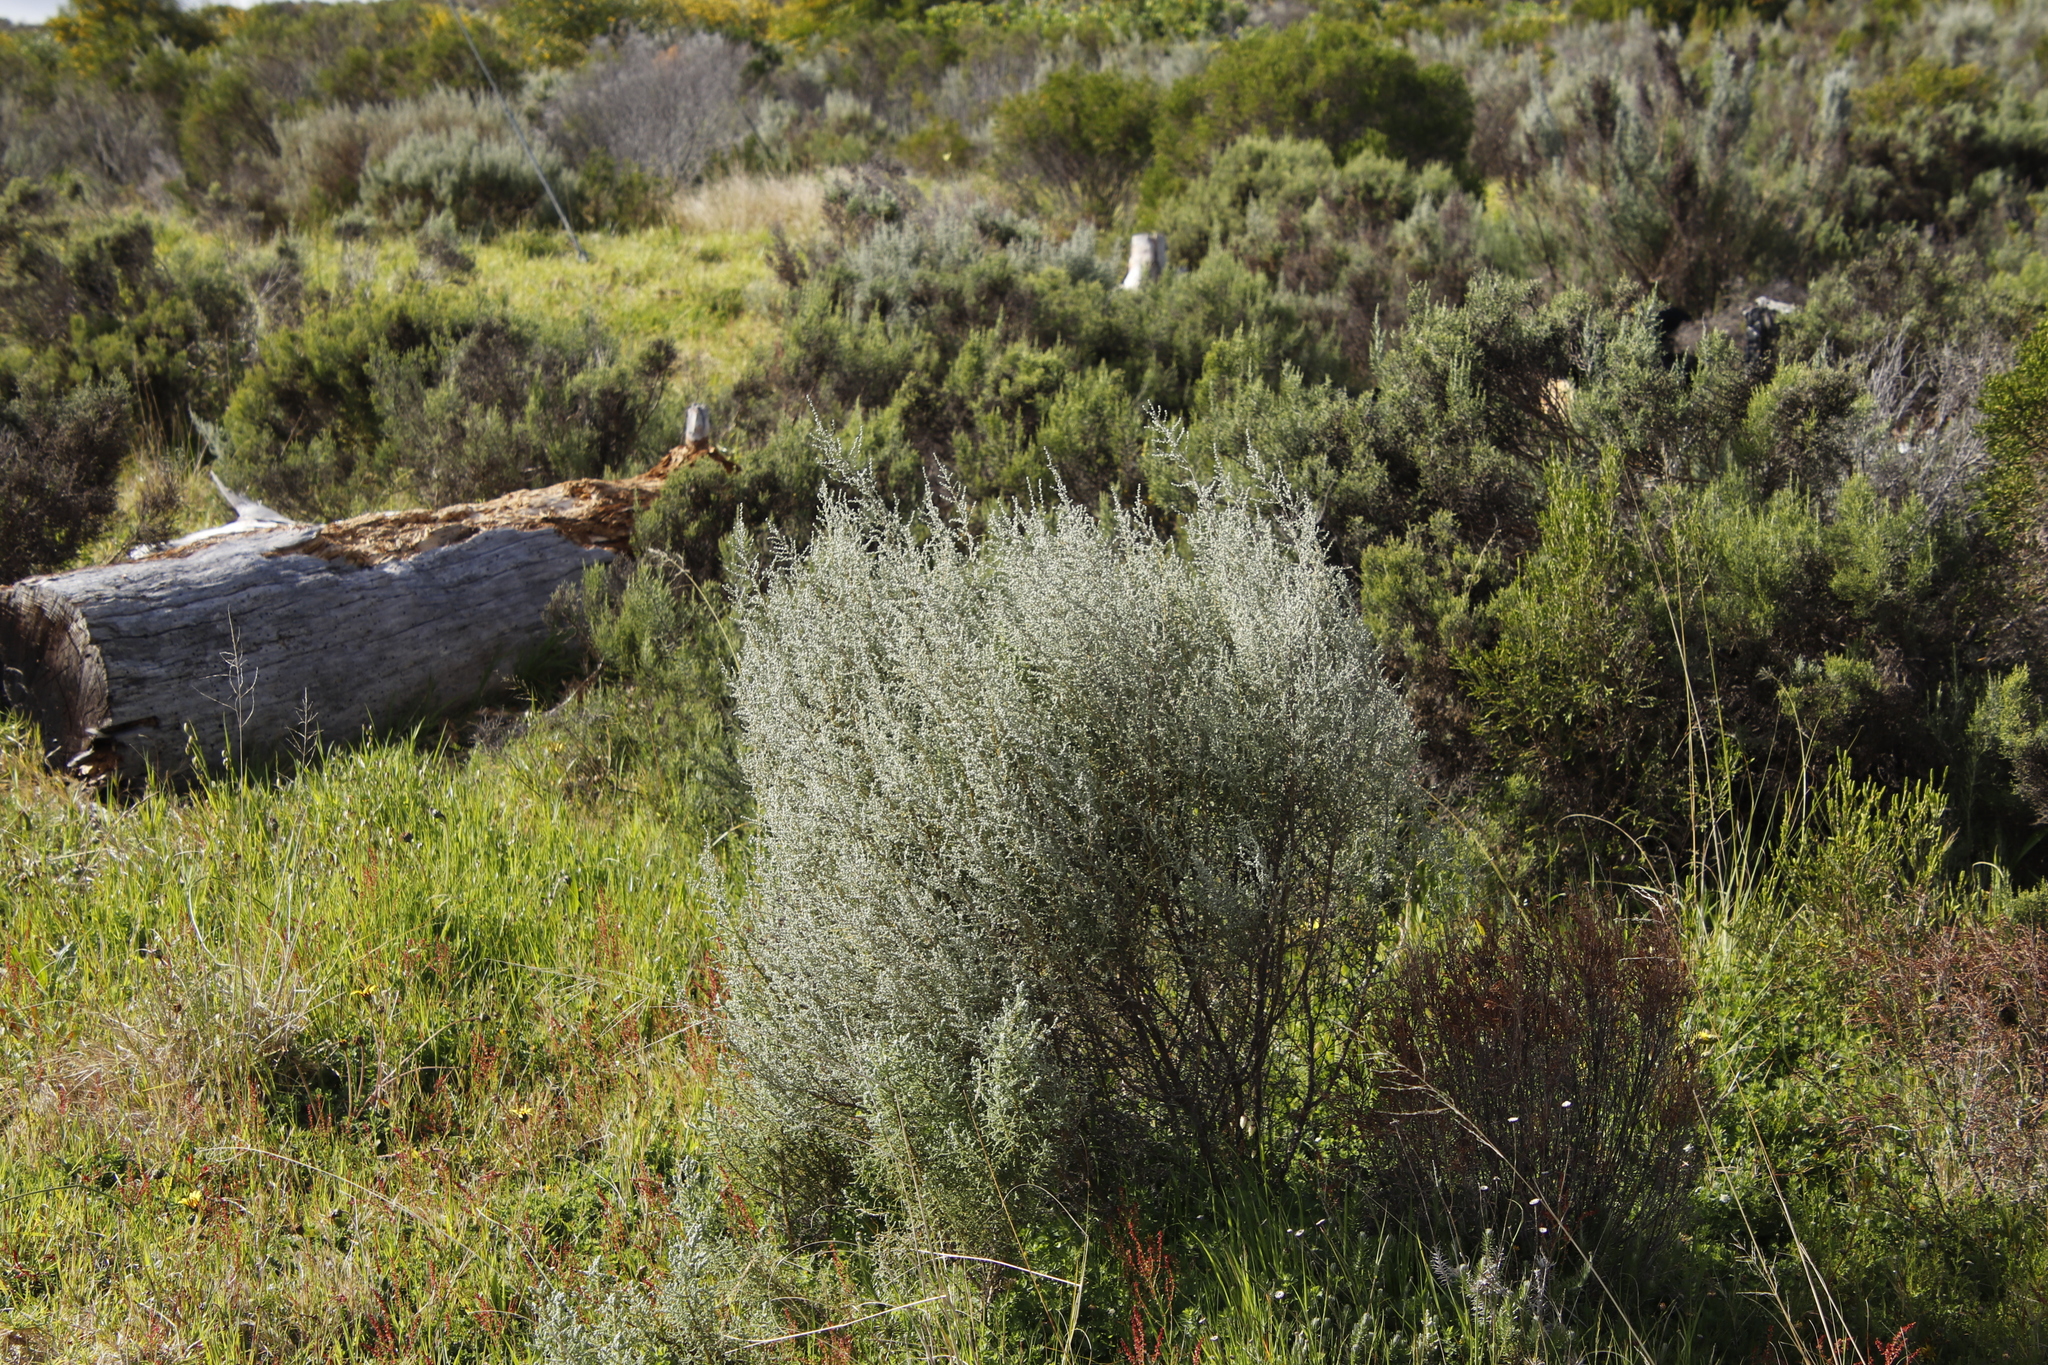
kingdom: Plantae
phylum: Tracheophyta
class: Magnoliopsida
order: Asterales
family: Asteraceae
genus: Seriphium
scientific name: Seriphium plumosum
